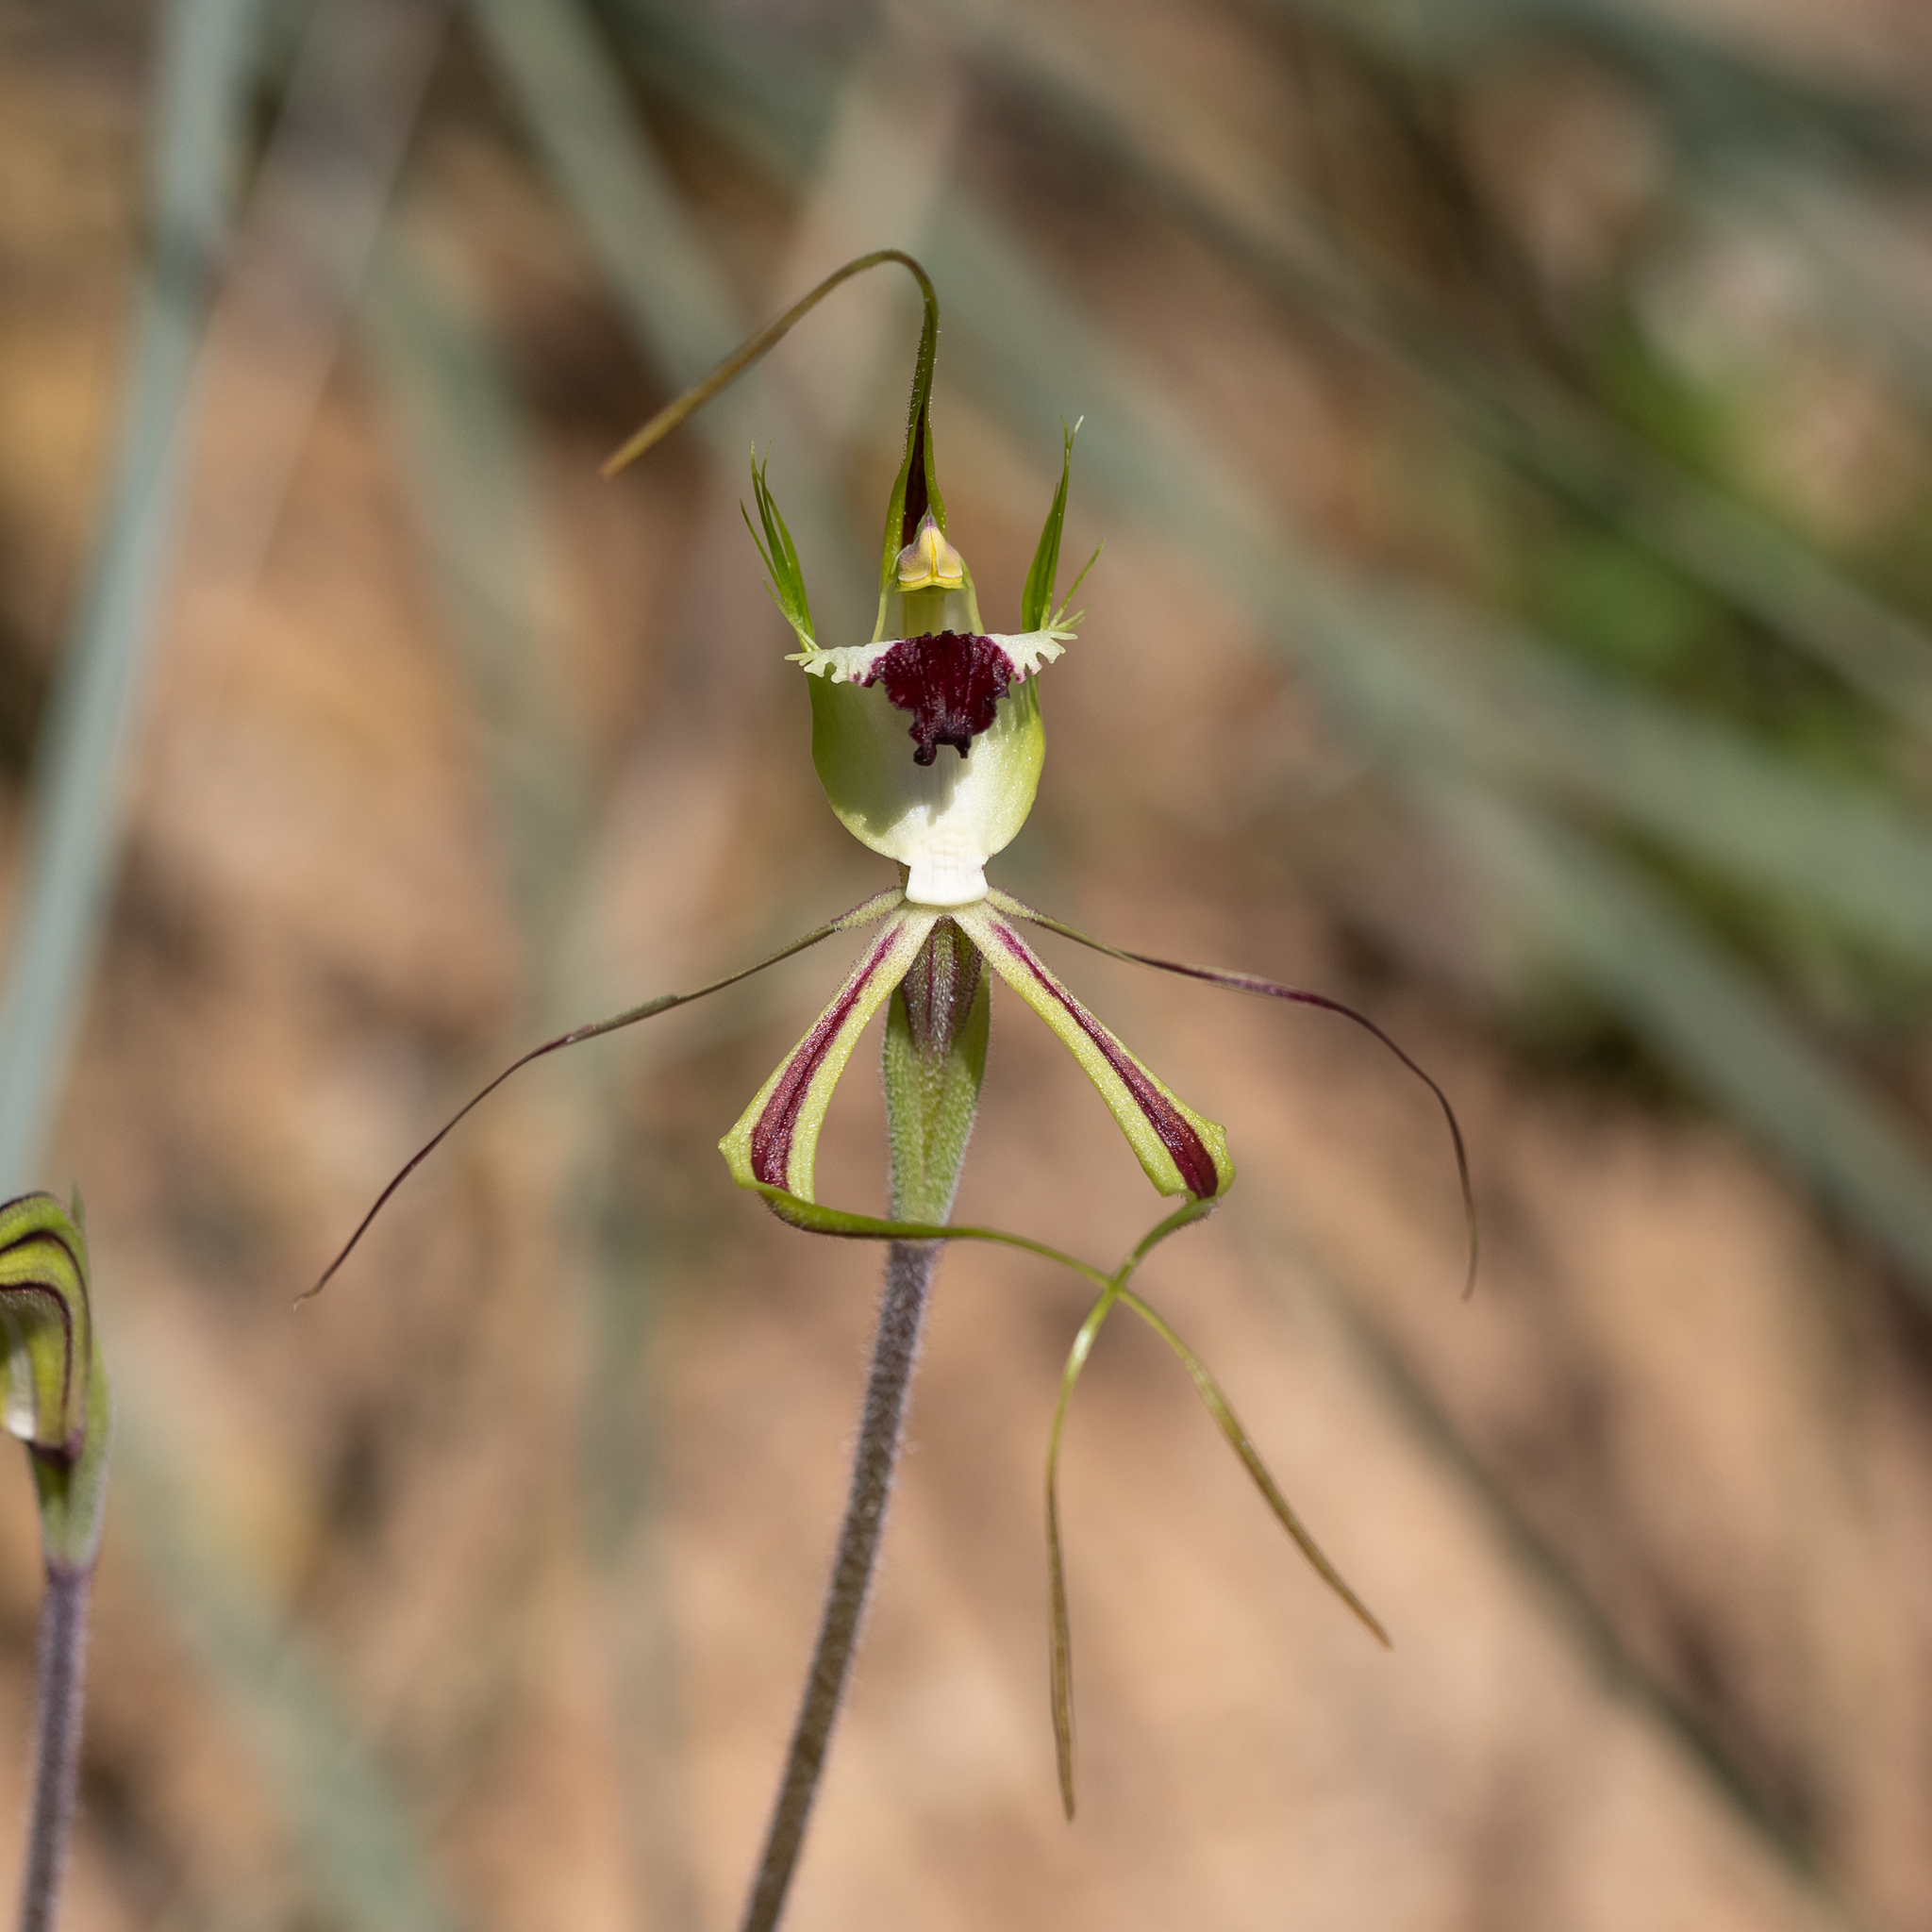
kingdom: Plantae
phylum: Tracheophyta
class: Liliopsida
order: Asparagales
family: Orchidaceae
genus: Caladenia
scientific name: Caladenia tentaculata
